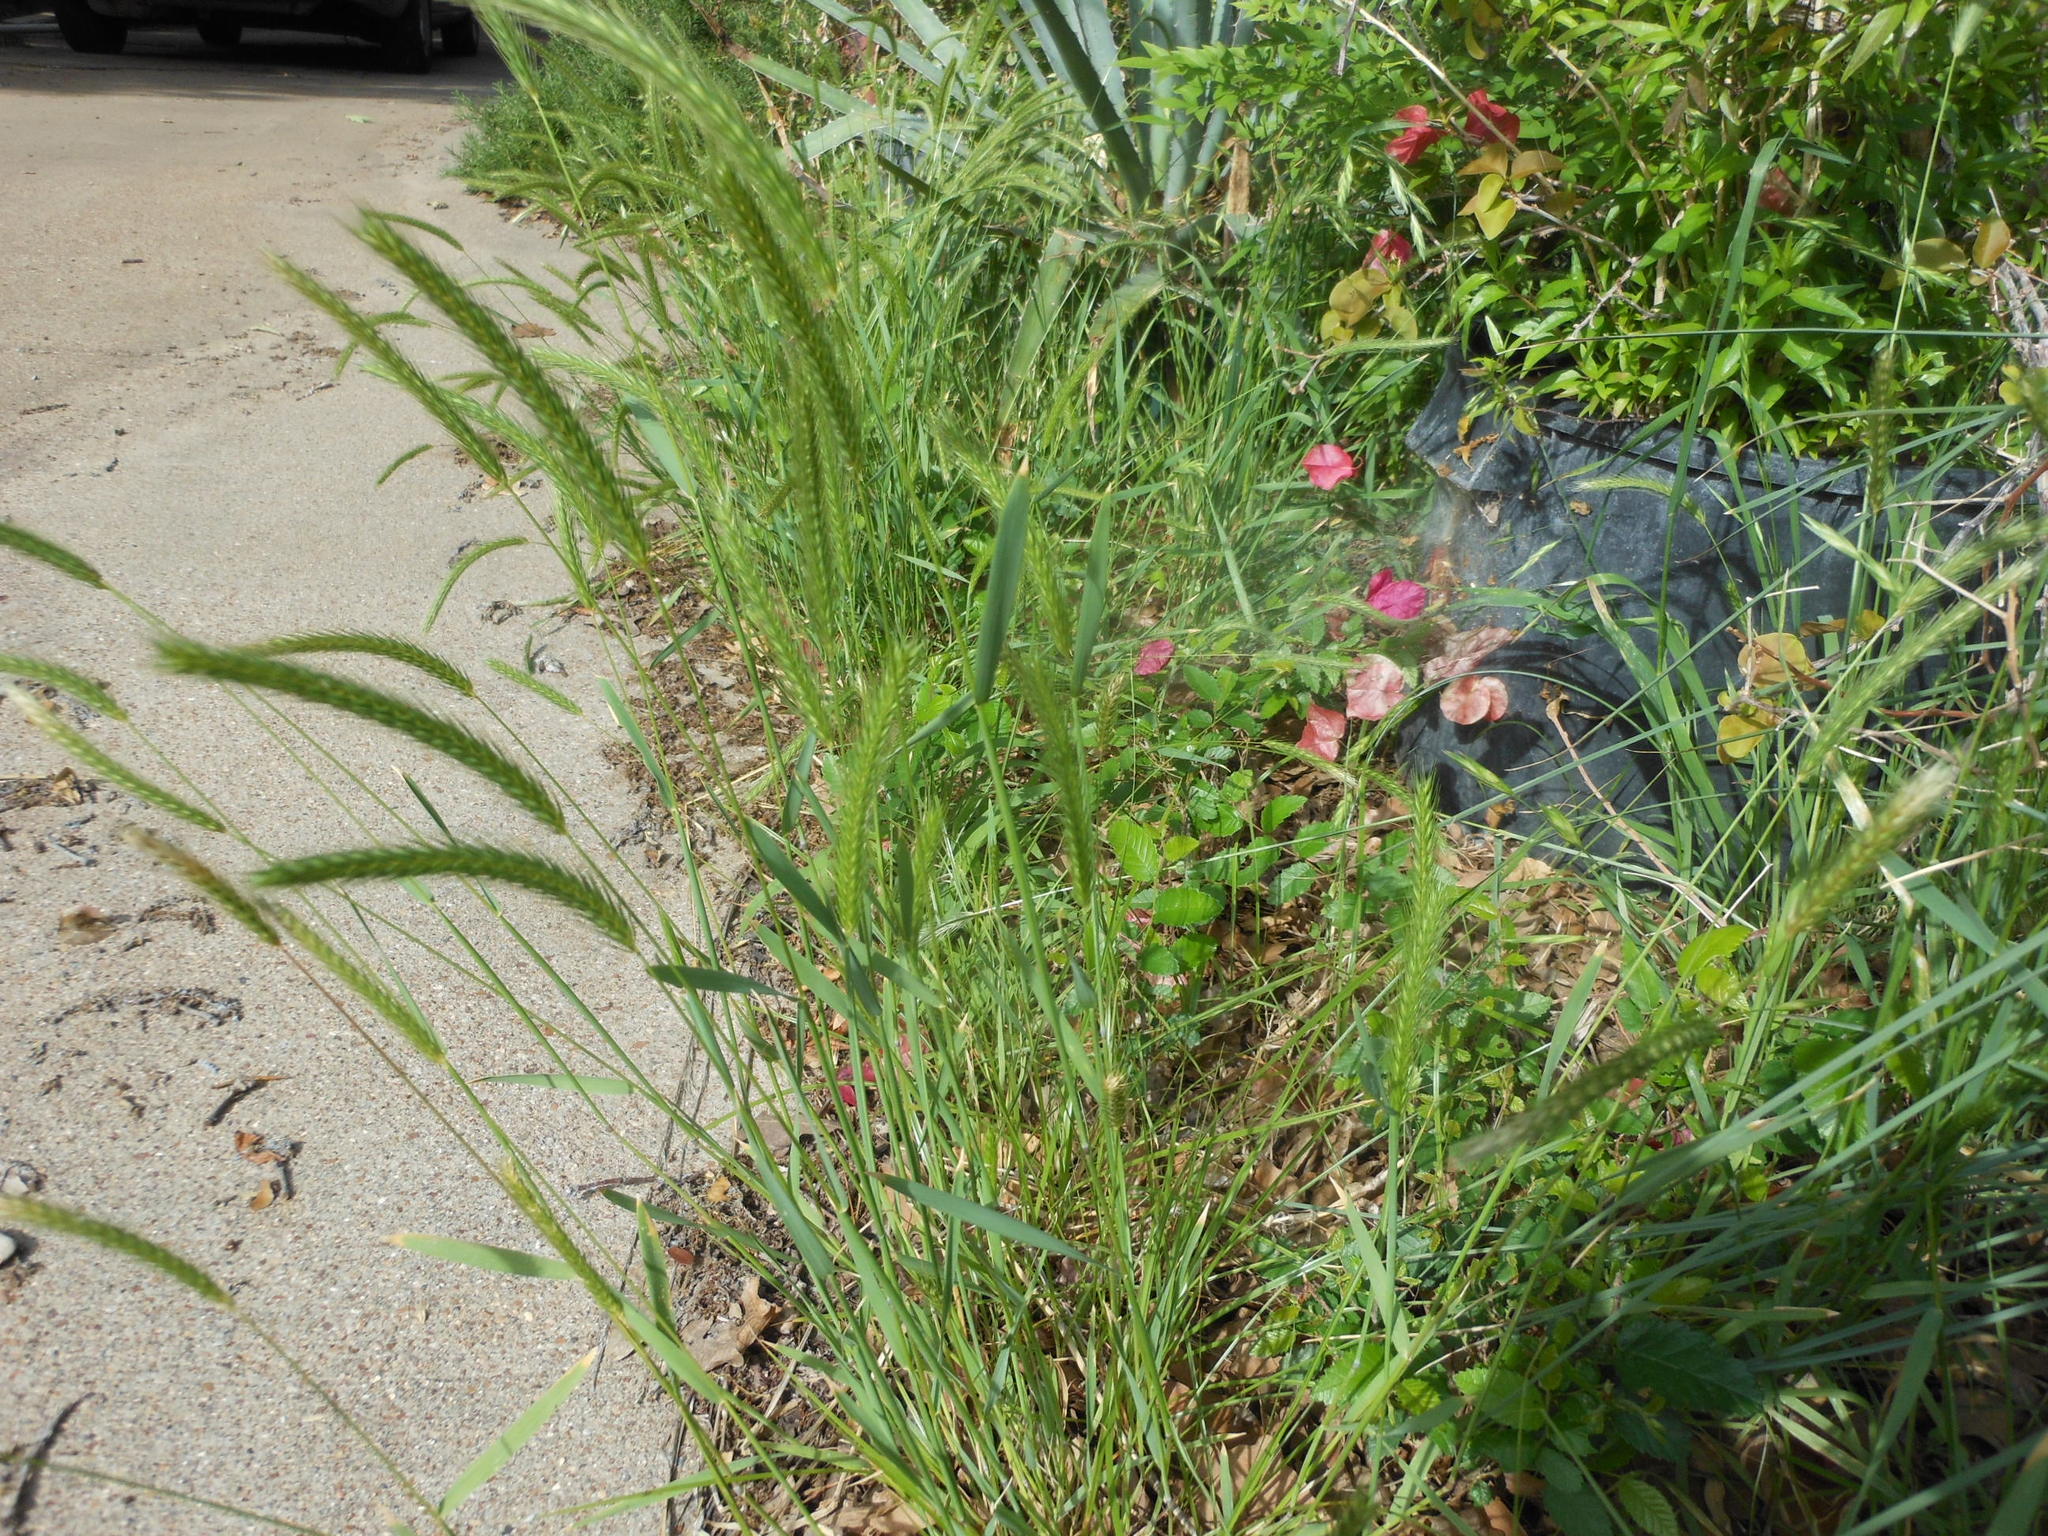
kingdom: Plantae
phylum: Tracheophyta
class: Liliopsida
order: Poales
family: Poaceae
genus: Hordeum
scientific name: Hordeum pusillum
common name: Little barley
